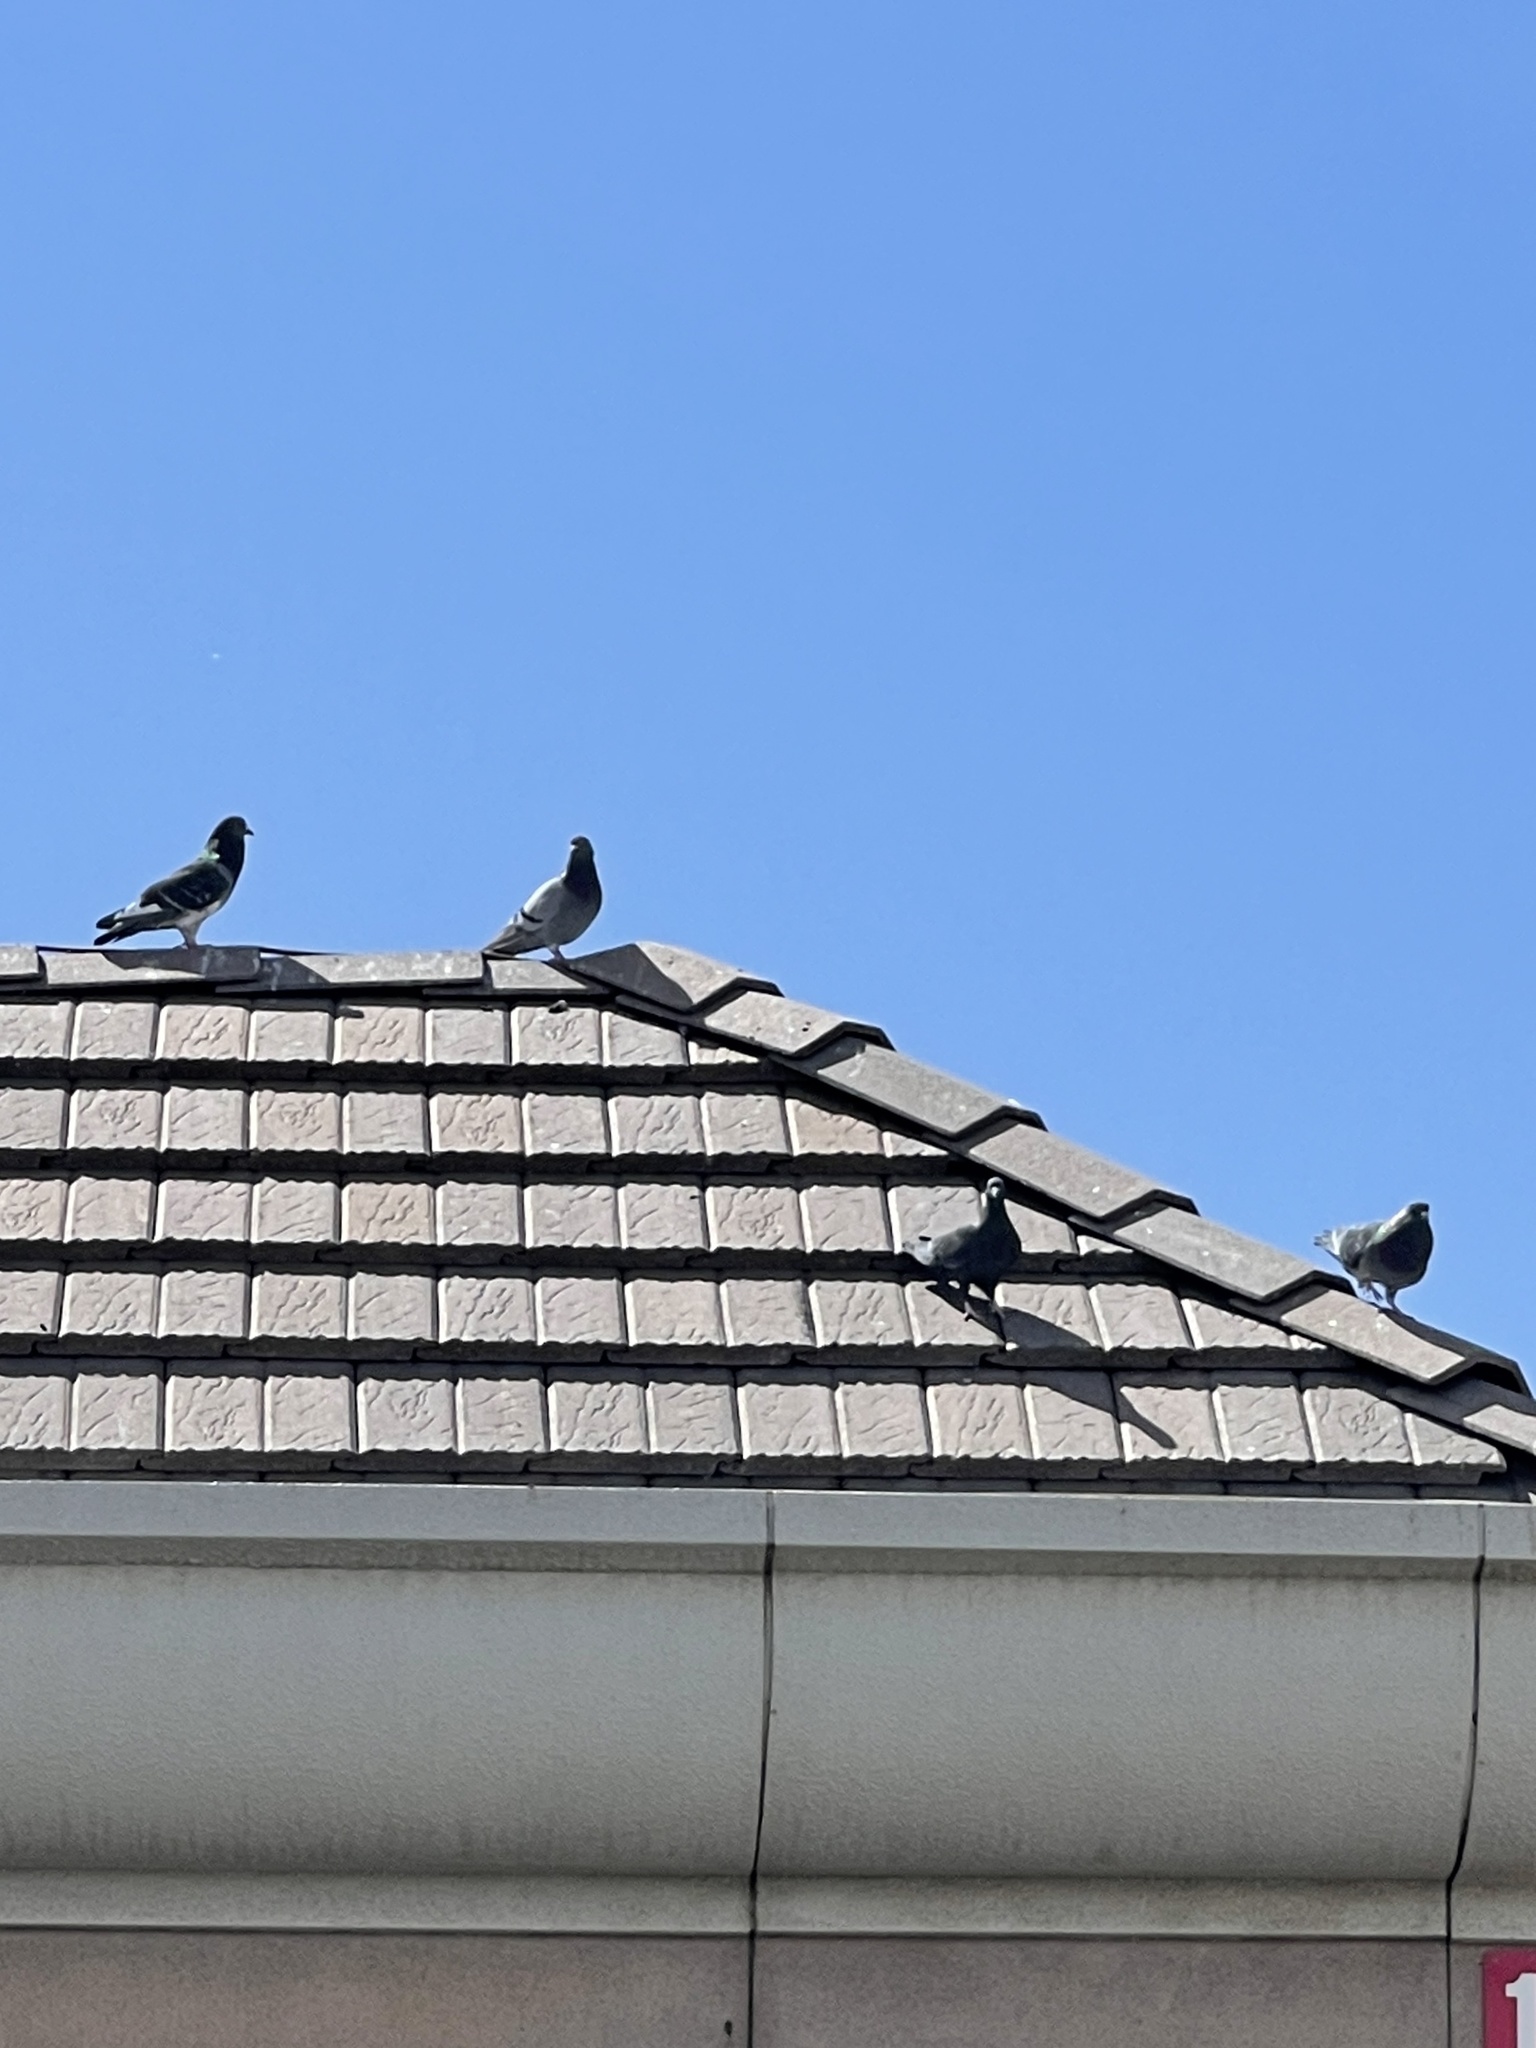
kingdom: Animalia
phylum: Chordata
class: Aves
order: Columbiformes
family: Columbidae
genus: Columba
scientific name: Columba livia
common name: Rock pigeon
